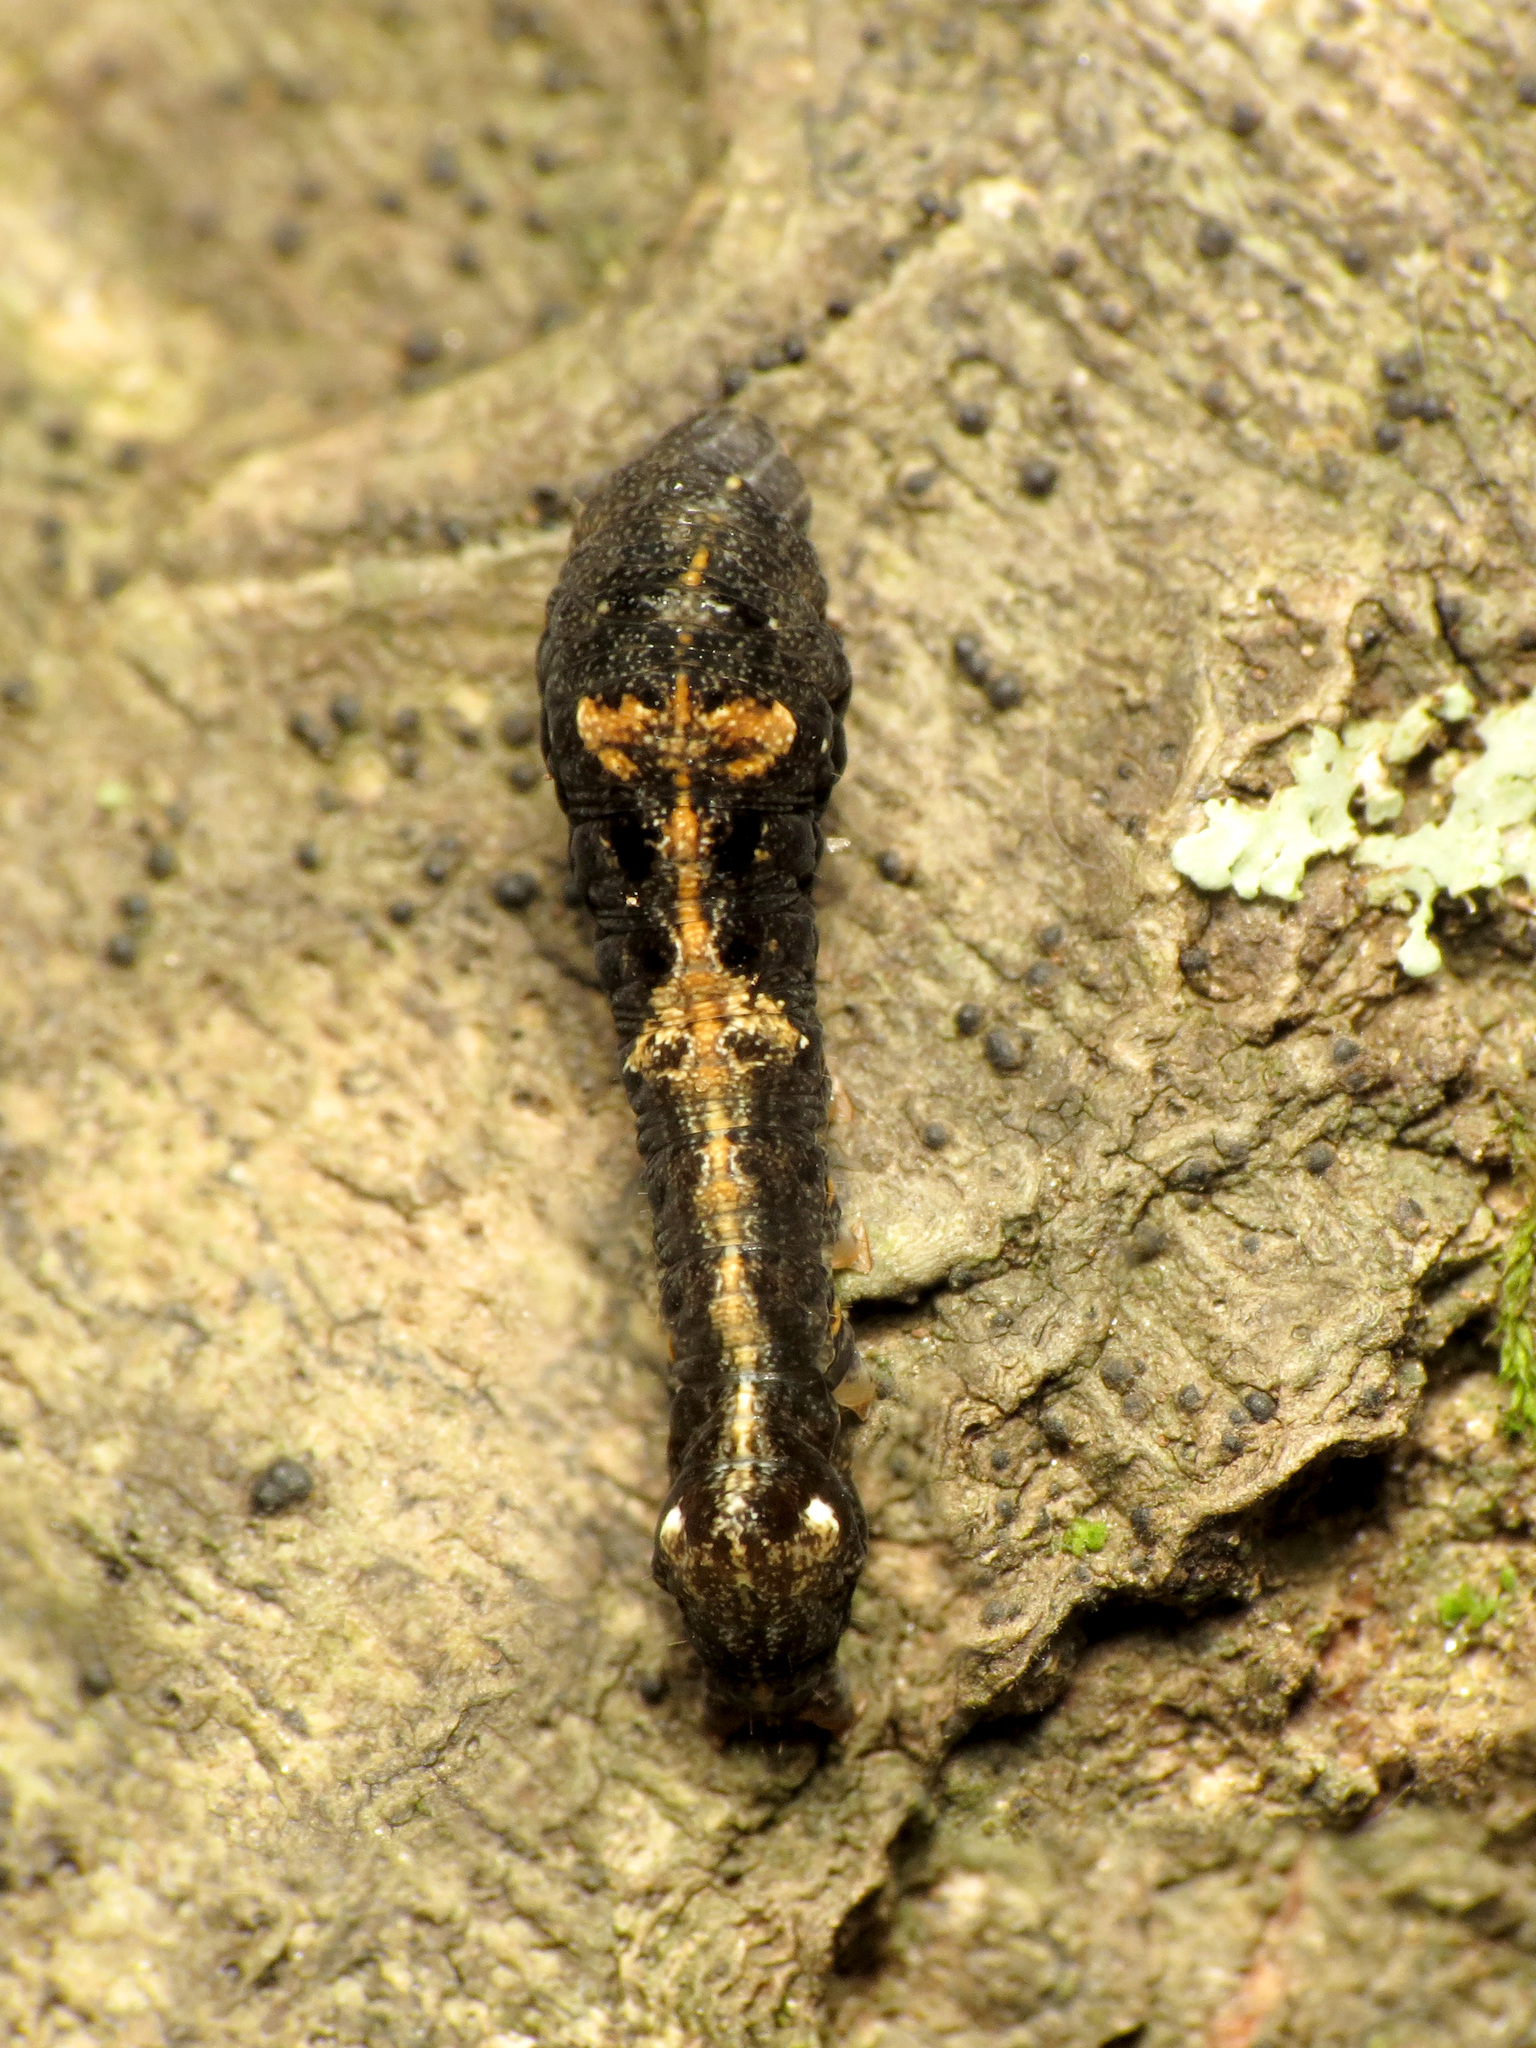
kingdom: Animalia
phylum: Arthropoda
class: Insecta
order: Lepidoptera
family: Noctuidae
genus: Elaphria
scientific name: Elaphria versicolor
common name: Fir harlequin
